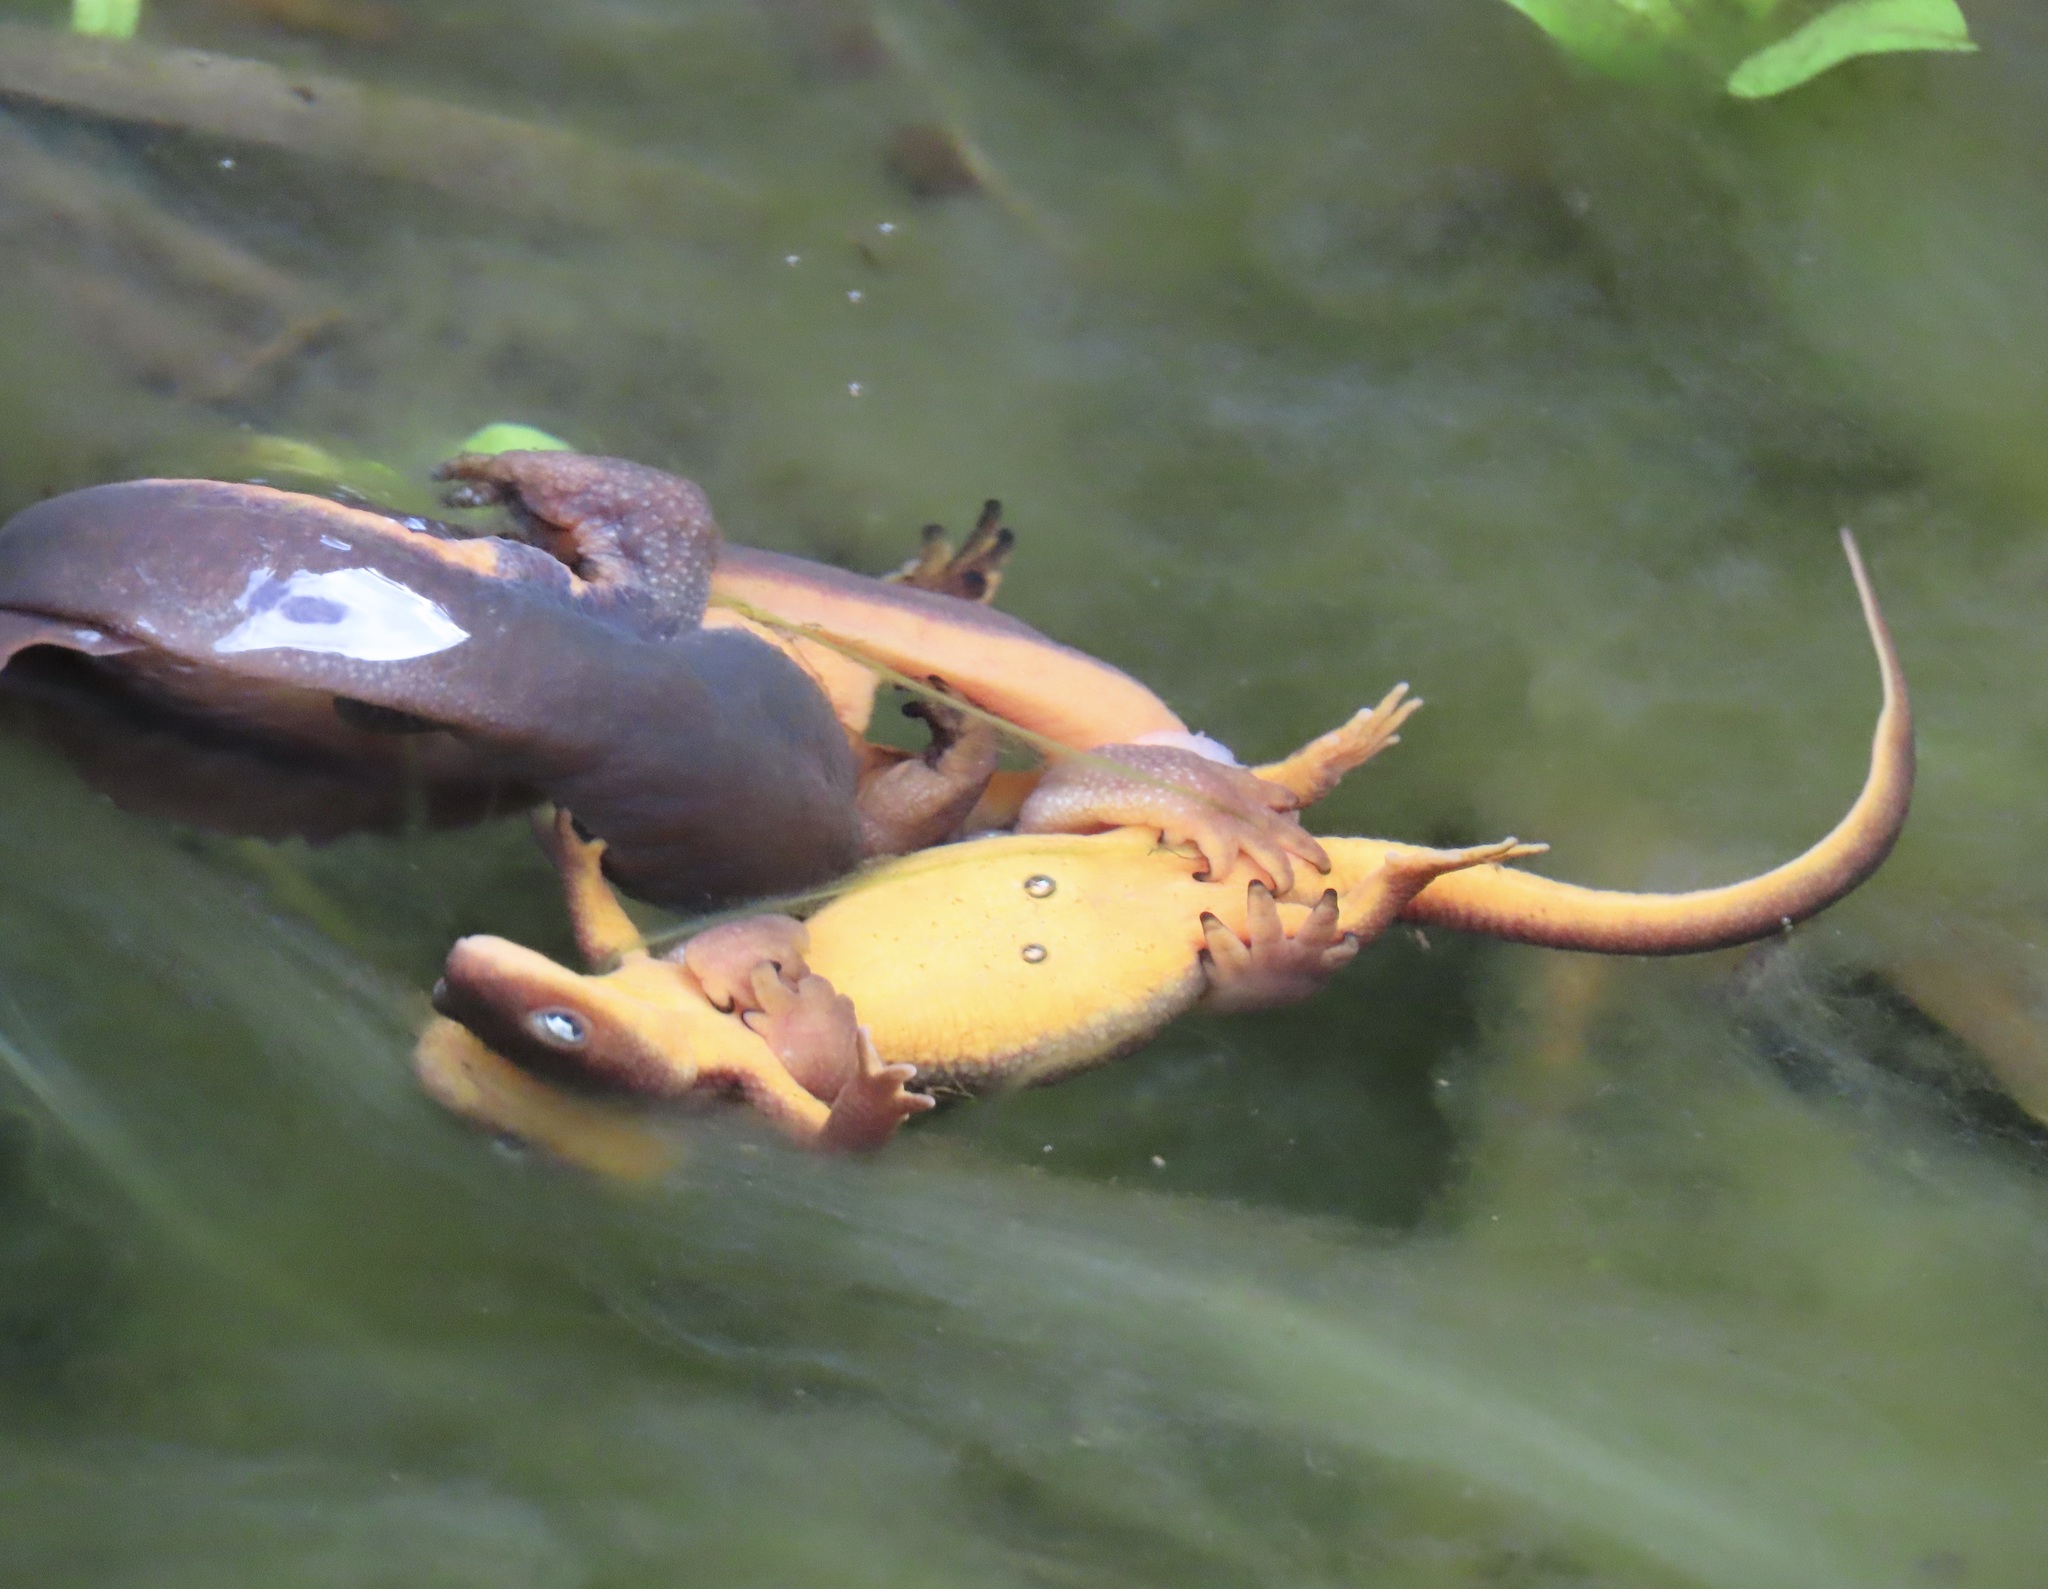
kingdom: Animalia
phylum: Chordata
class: Amphibia
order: Caudata
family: Salamandridae
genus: Taricha
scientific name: Taricha granulosa
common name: Roughskin newt
